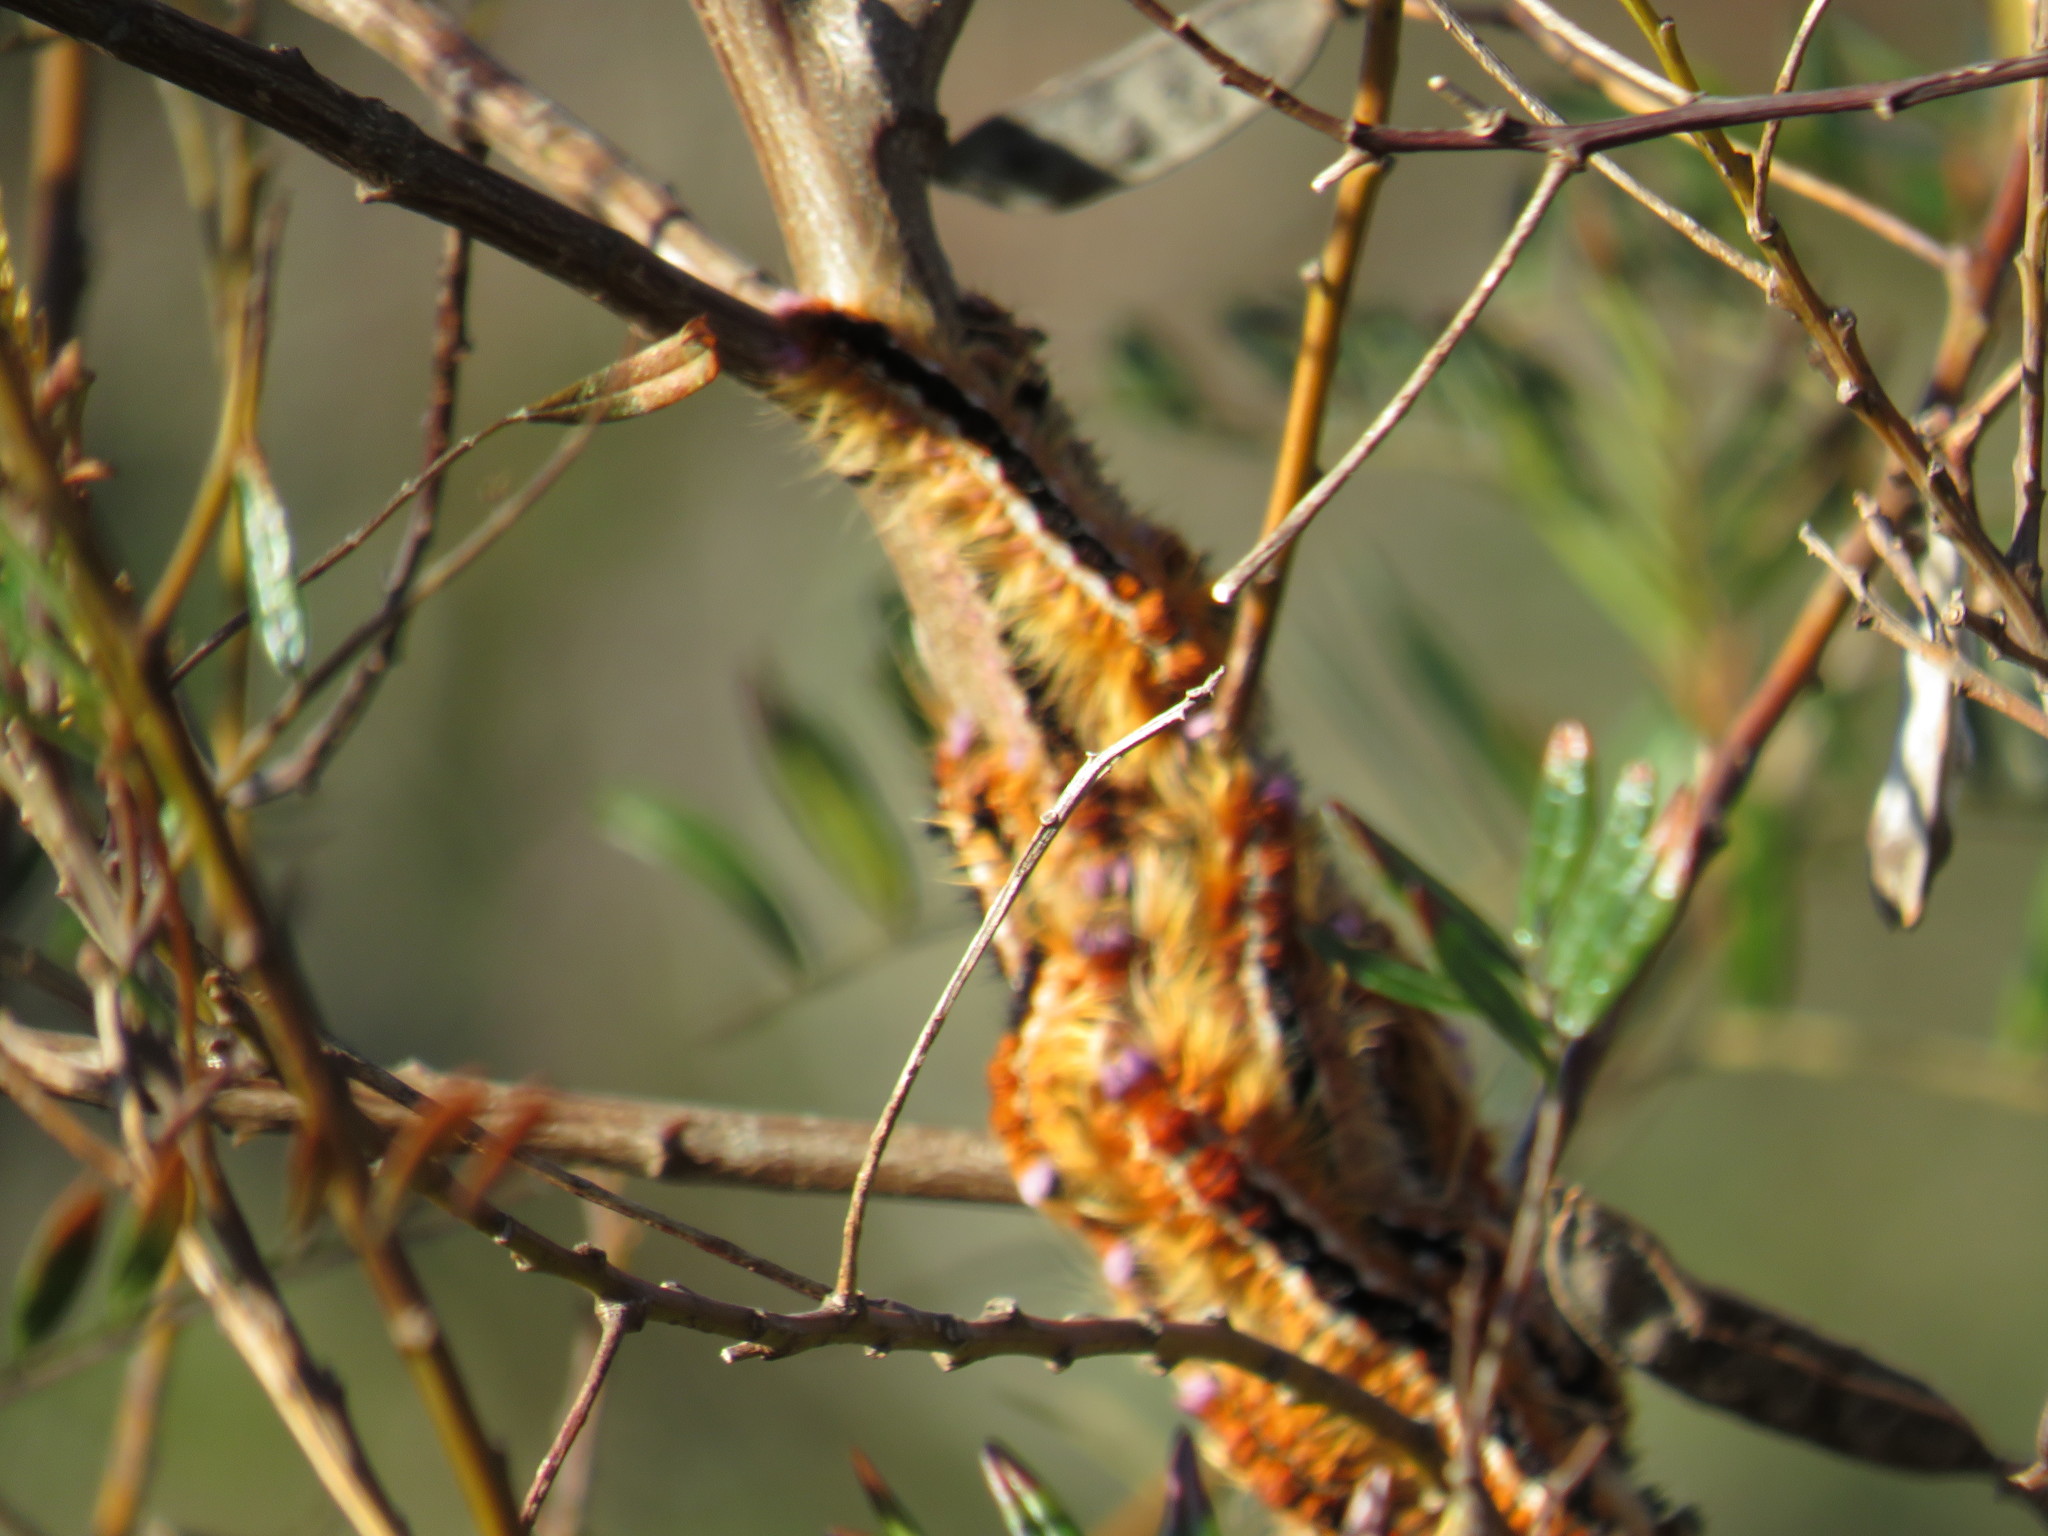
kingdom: Animalia
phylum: Arthropoda
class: Insecta
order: Lepidoptera
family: Lasiocampidae
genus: Eutricha
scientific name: Eutricha capensis
